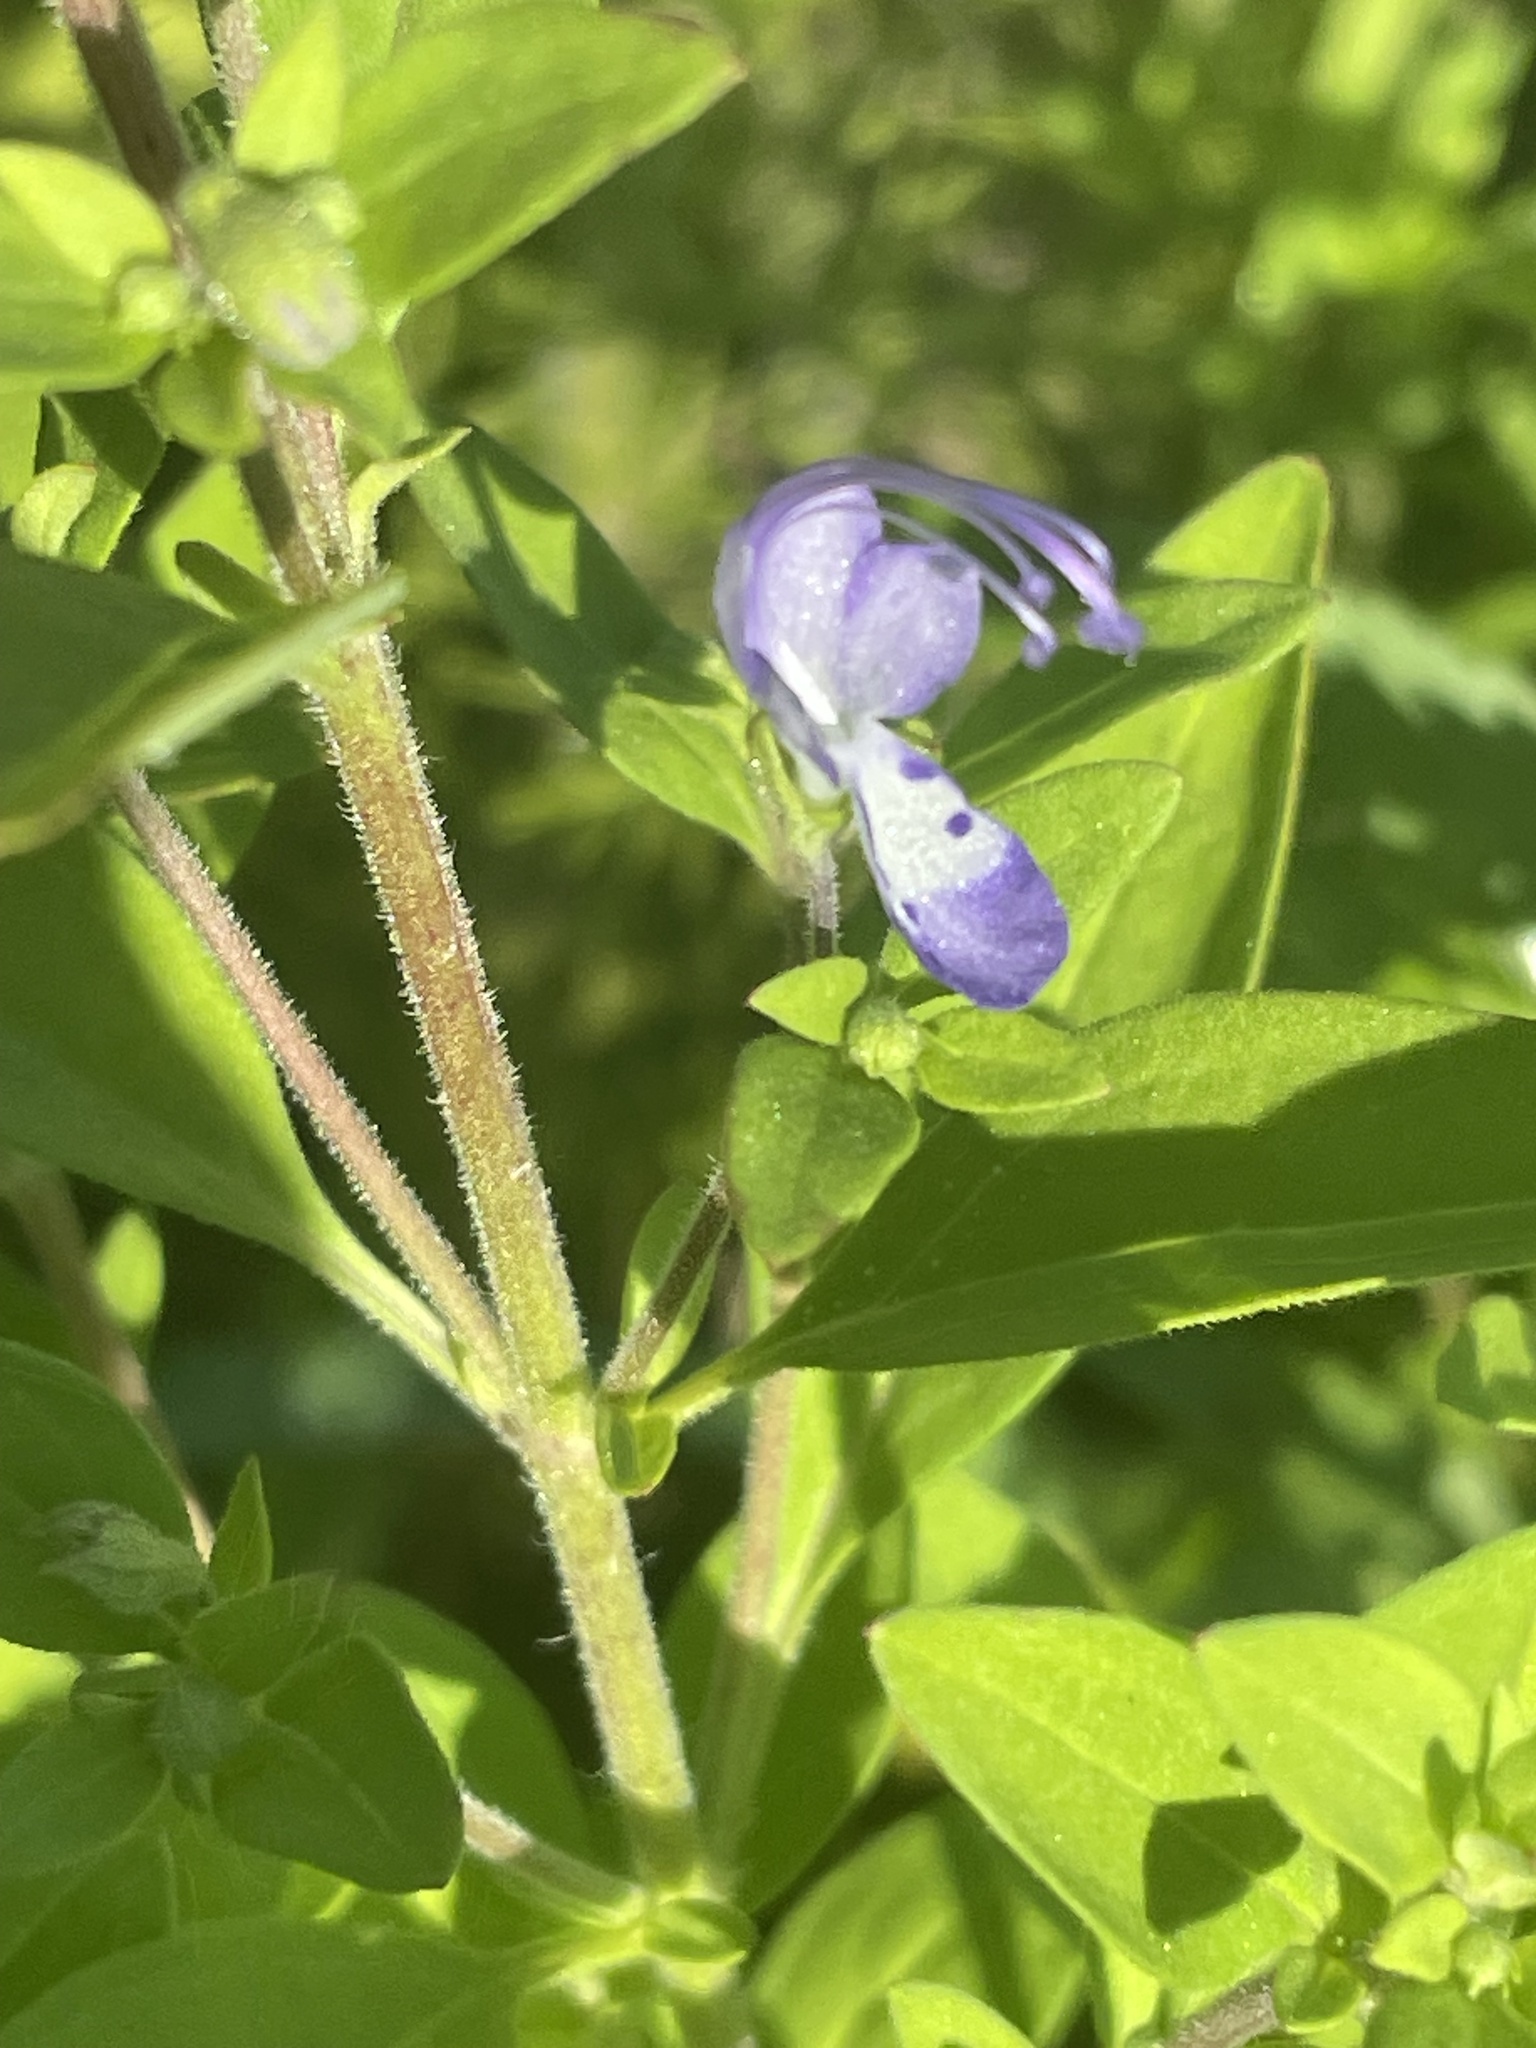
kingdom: Plantae
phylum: Tracheophyta
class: Magnoliopsida
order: Lamiales
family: Lamiaceae
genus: Trichostema
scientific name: Trichostema dichotomum
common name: Bastard pennyroyal
